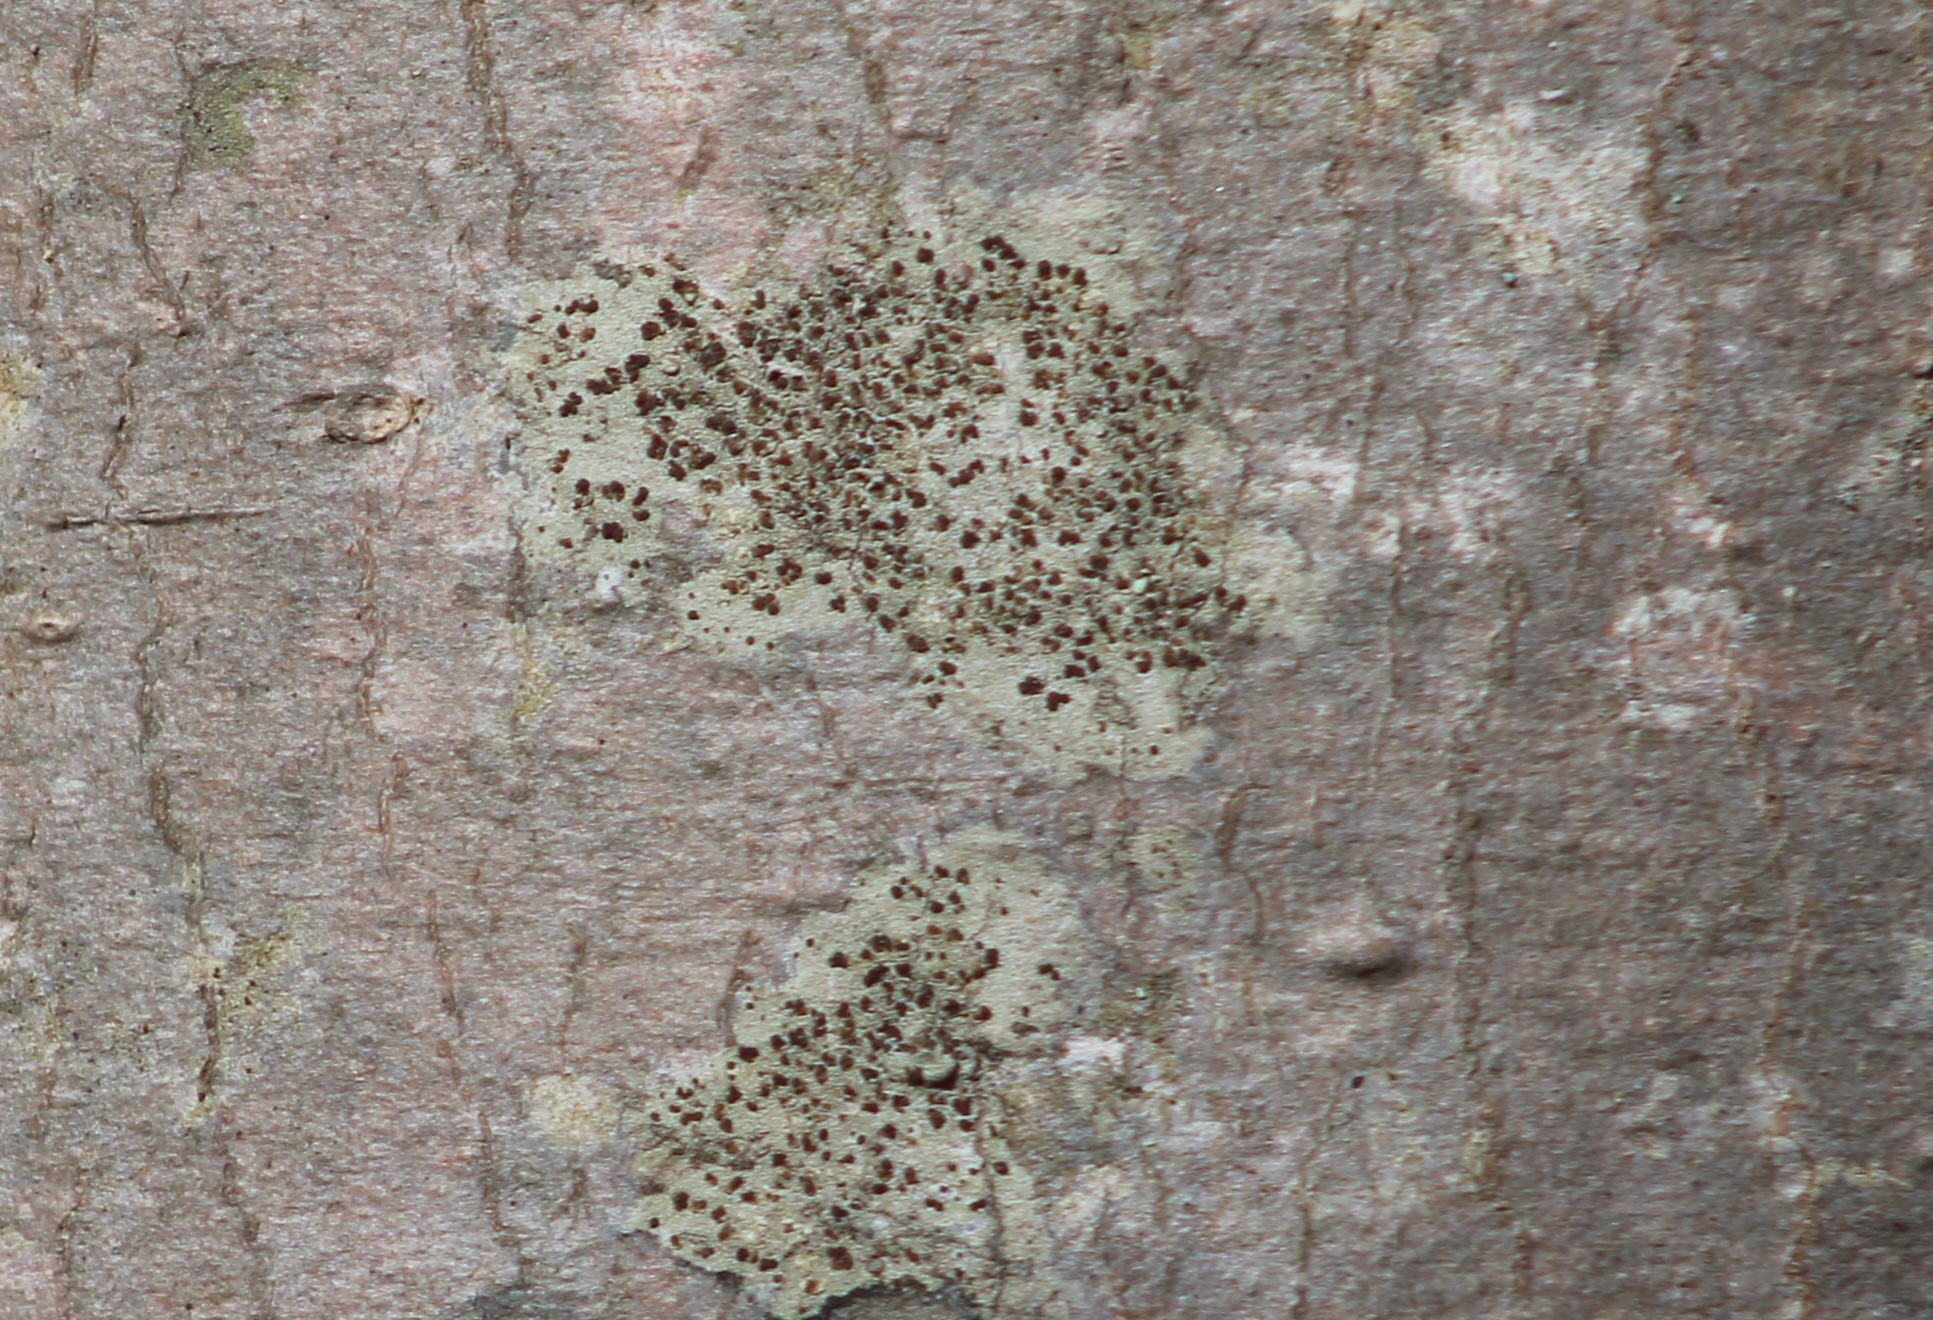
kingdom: Fungi
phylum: Ascomycota
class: Lecanoromycetes
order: Lecanorales
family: Lecanoraceae
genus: Traponora
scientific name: Traponora varians
